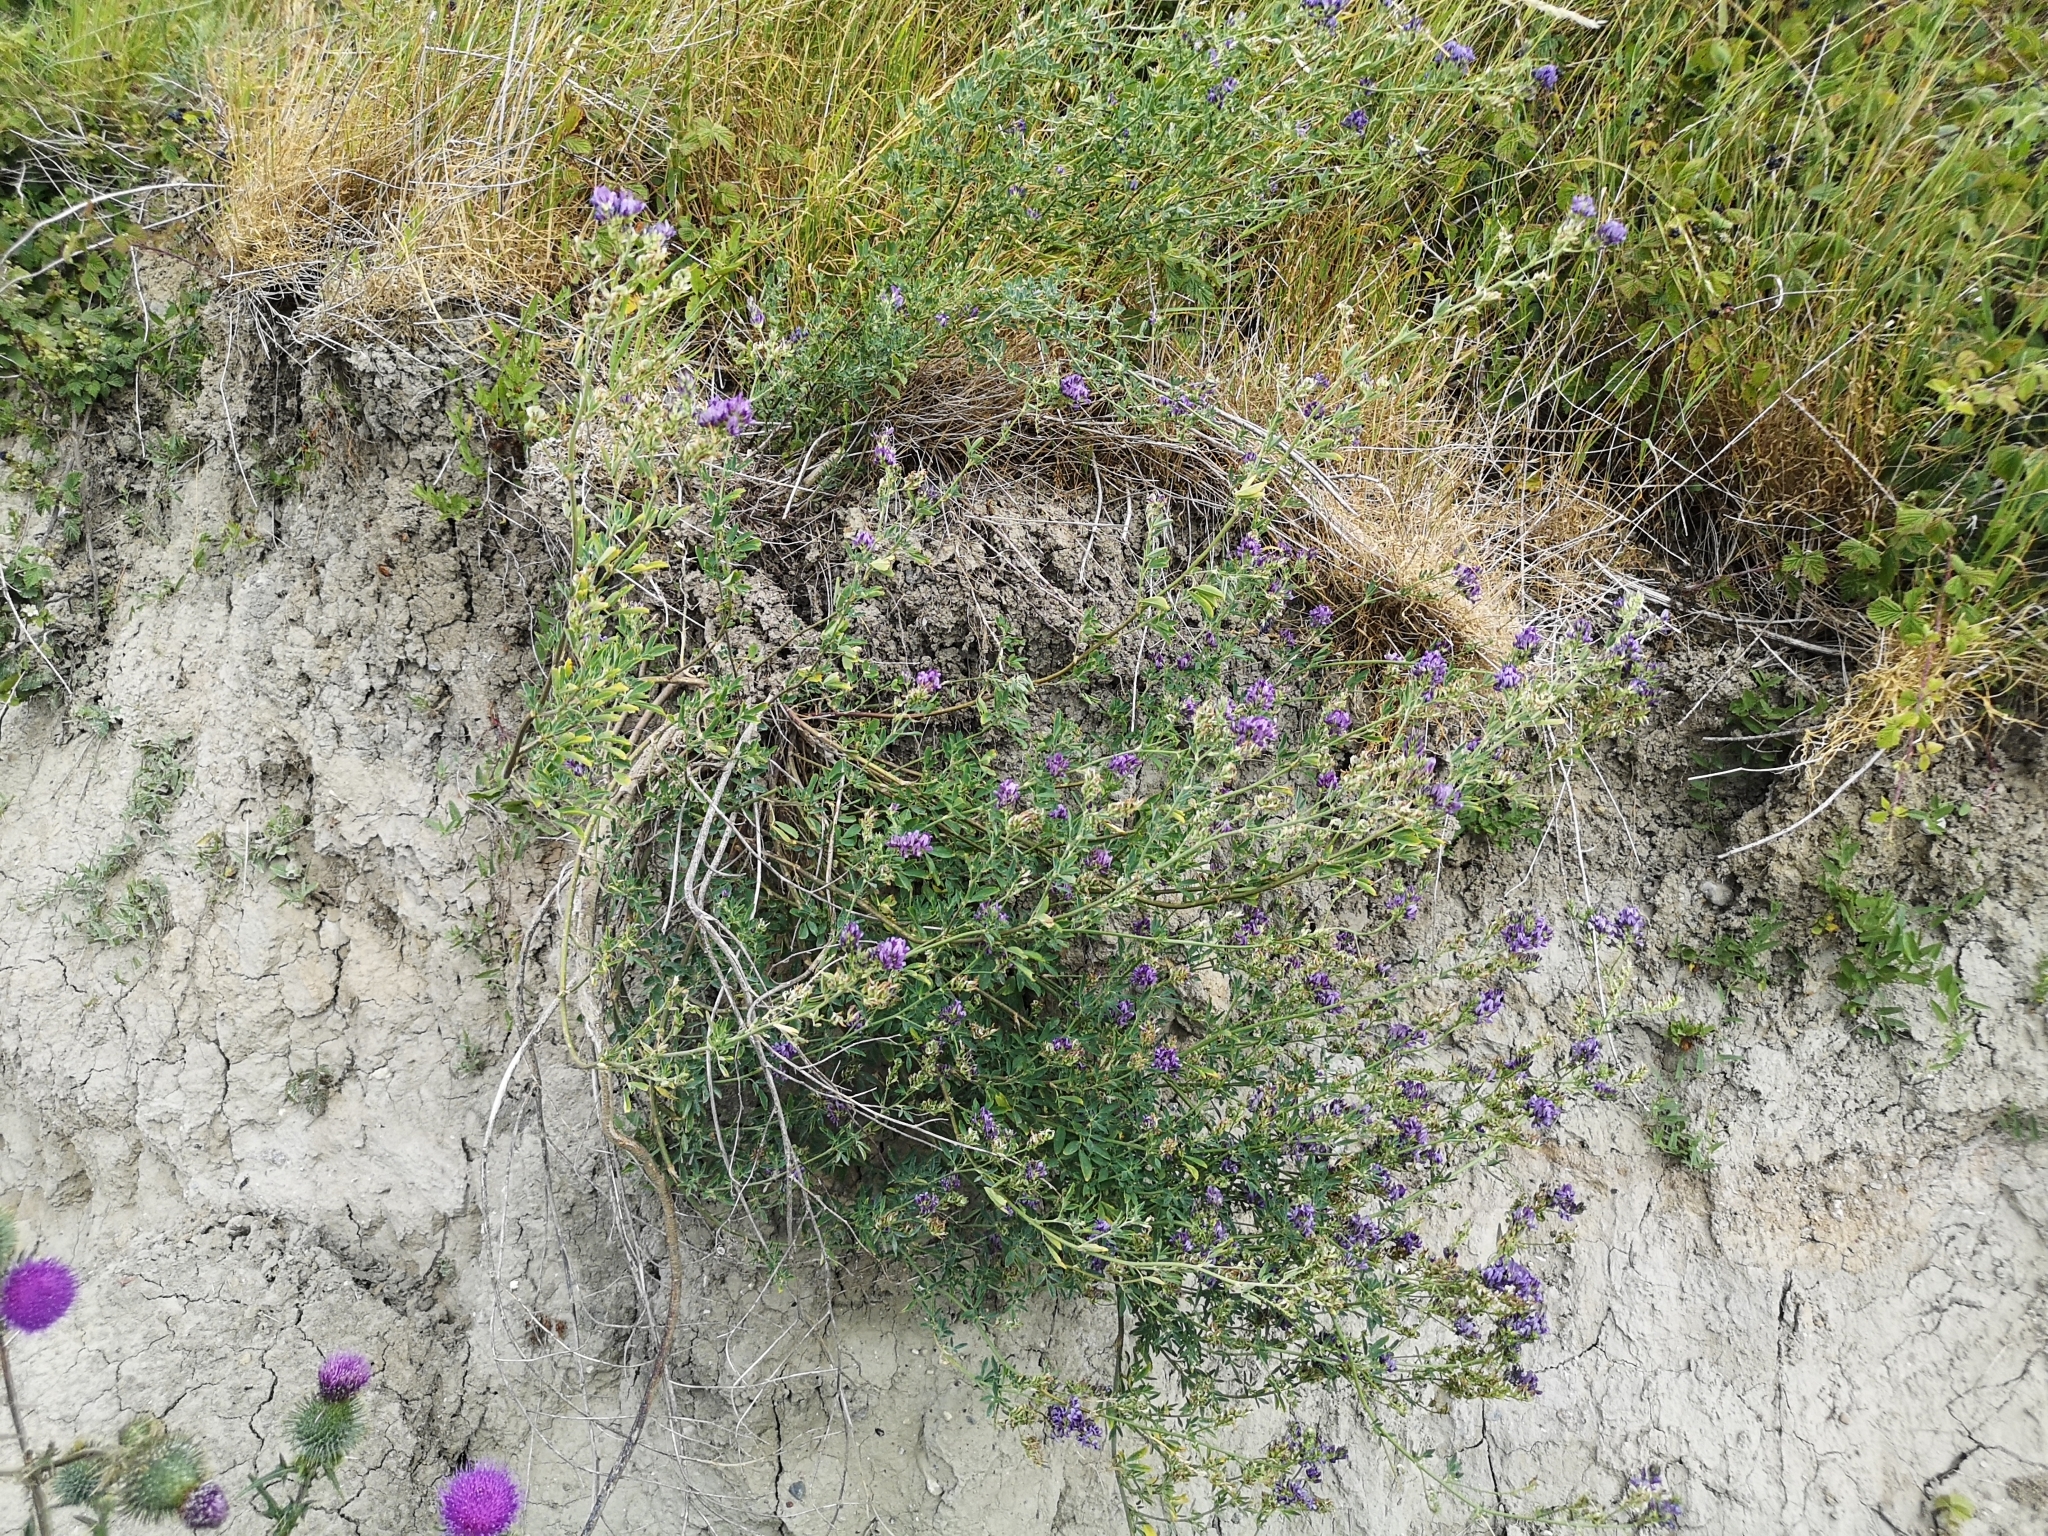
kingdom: Plantae
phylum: Tracheophyta
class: Magnoliopsida
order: Fabales
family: Fabaceae
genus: Medicago
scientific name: Medicago varia
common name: Sand lucerne
